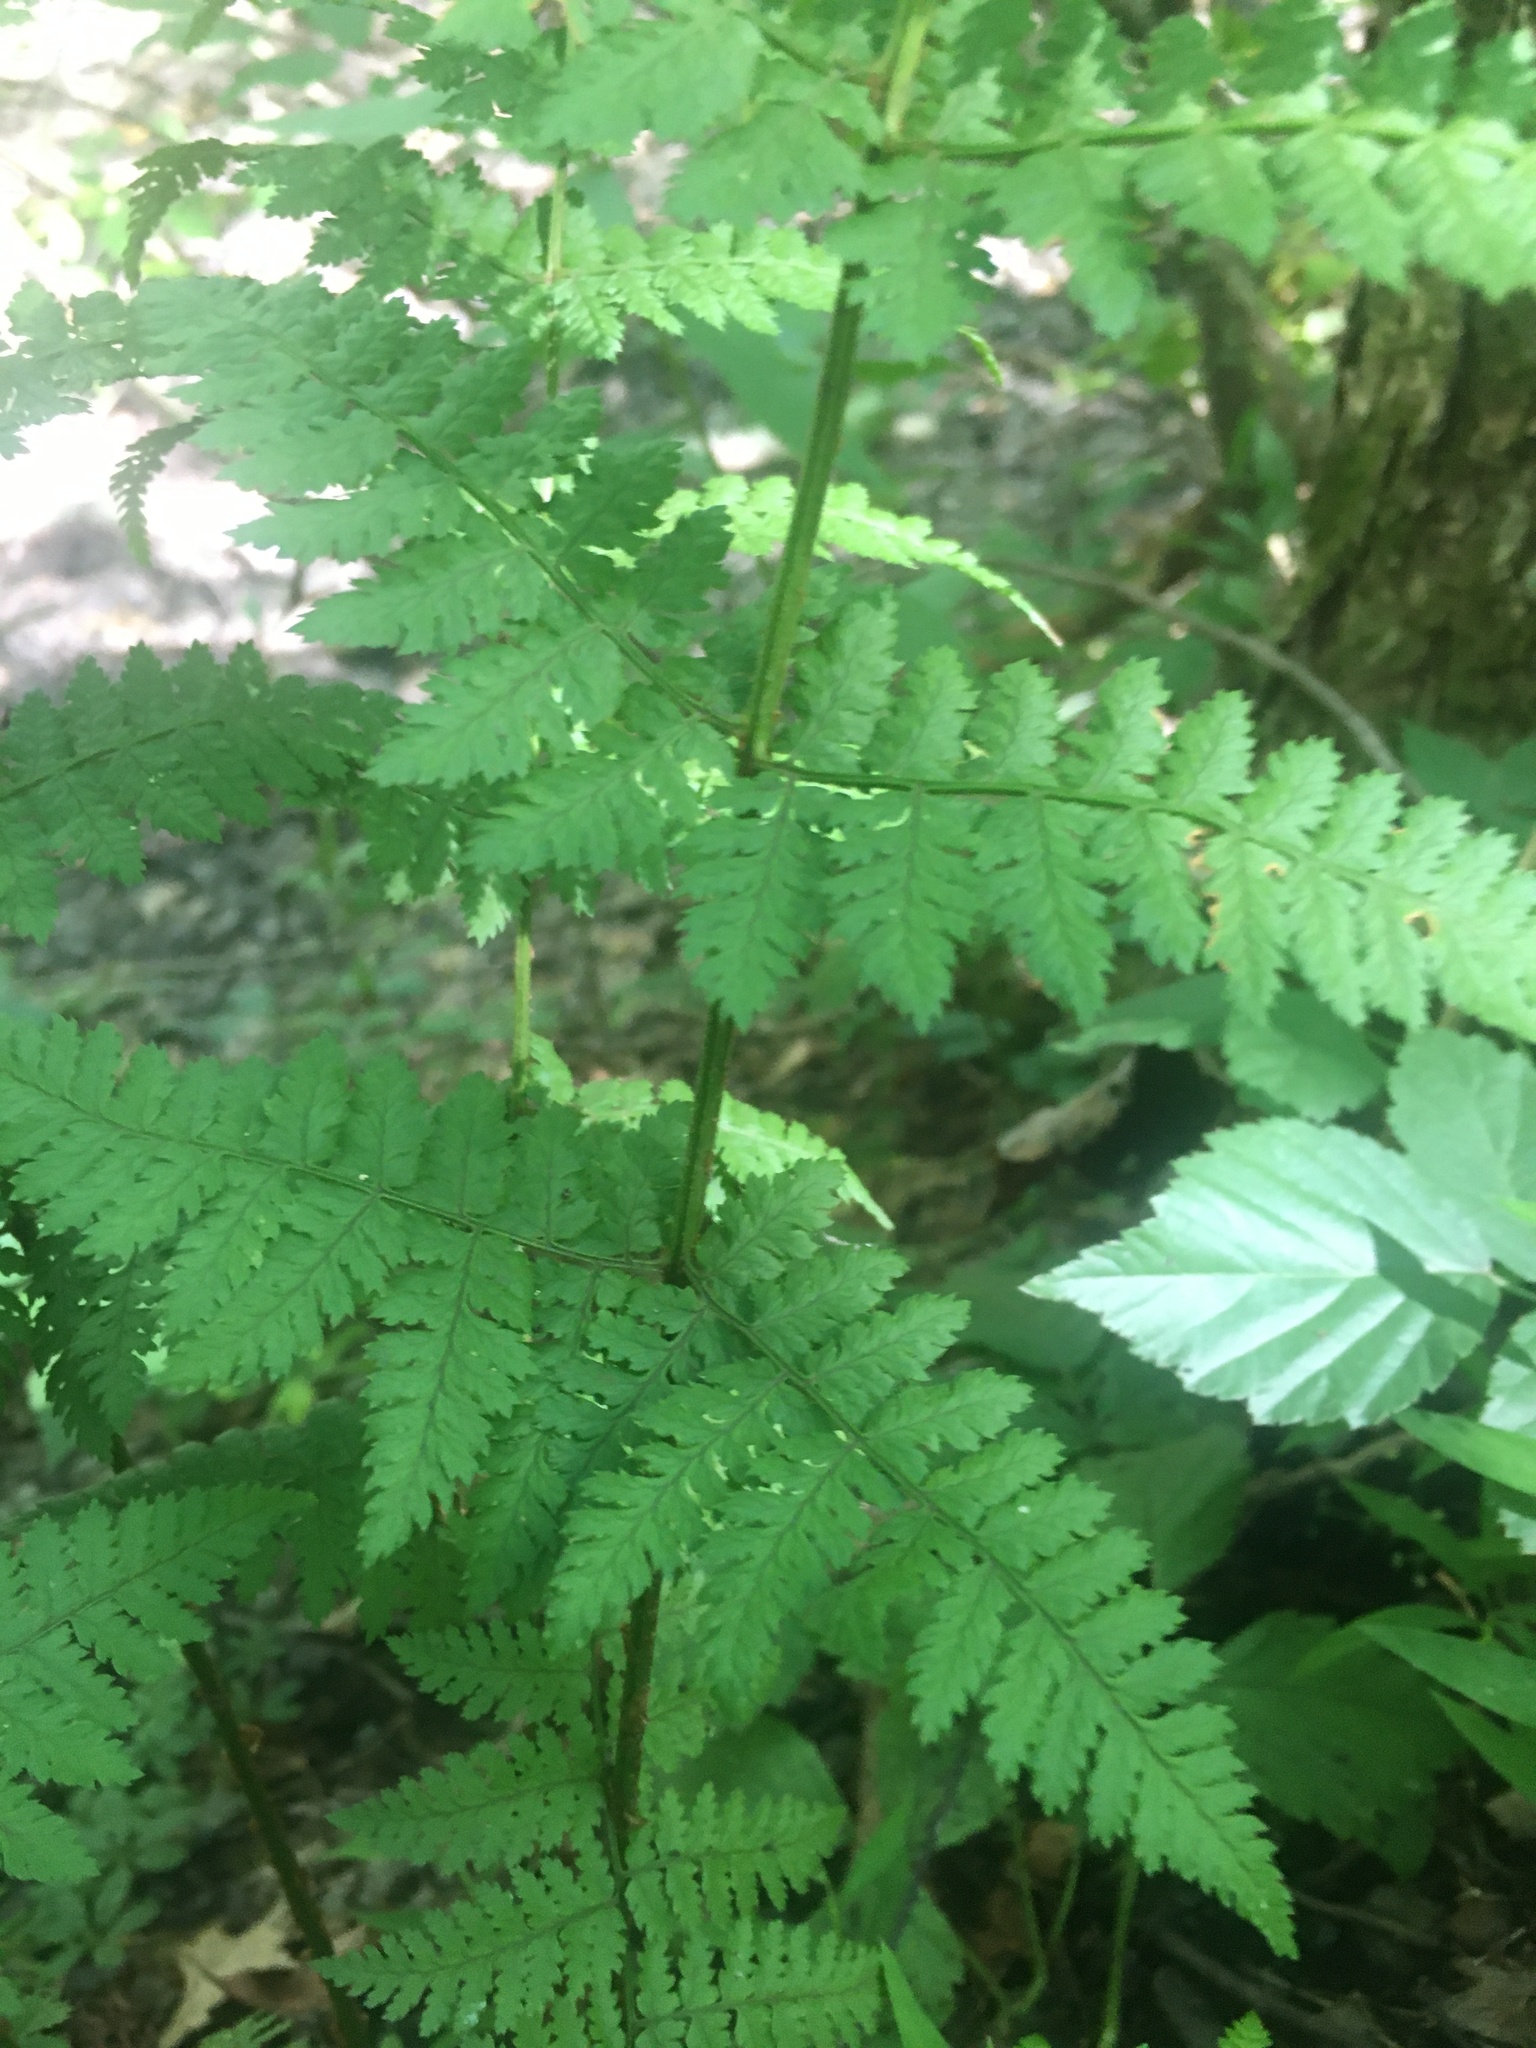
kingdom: Plantae
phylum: Tracheophyta
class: Polypodiopsida
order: Polypodiales
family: Dryopteridaceae
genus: Dryopteris
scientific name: Dryopteris carthusiana
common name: Narrow buckler-fern
